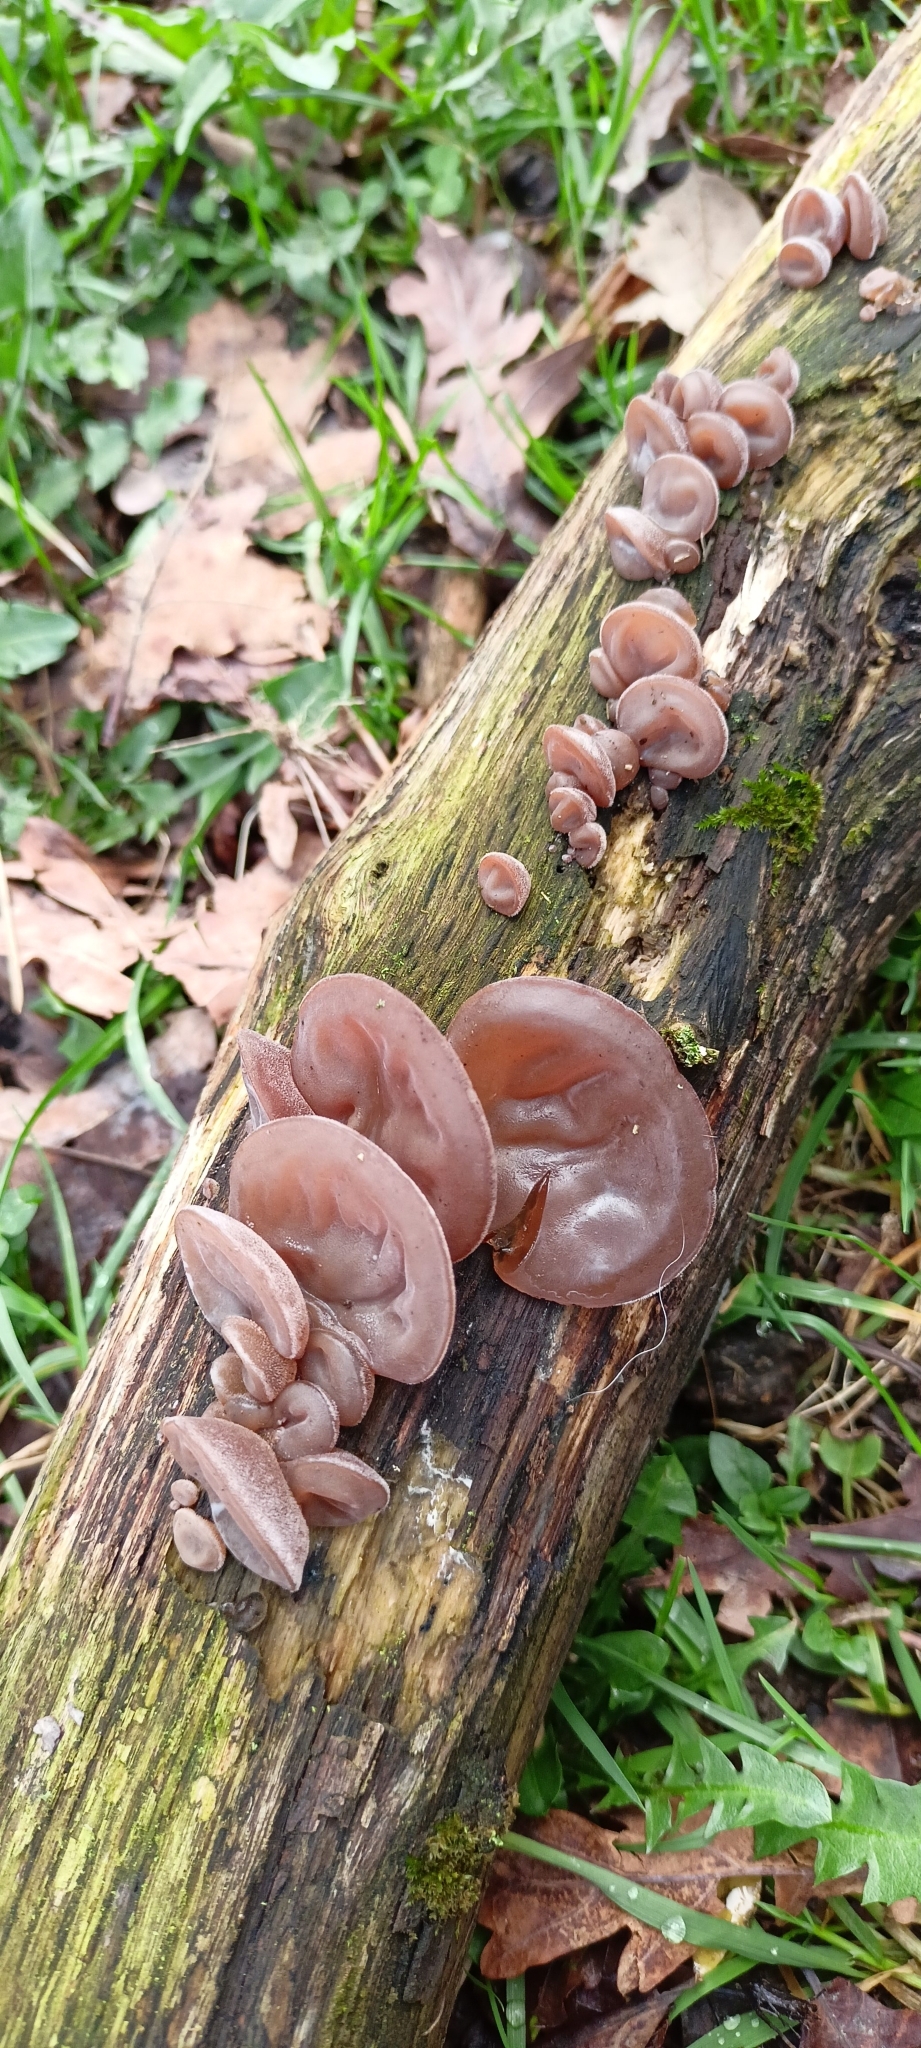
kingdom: Fungi
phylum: Basidiomycota
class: Agaricomycetes
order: Auriculariales
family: Auriculariaceae
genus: Auricularia
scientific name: Auricularia auricula-judae
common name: Jelly ear
